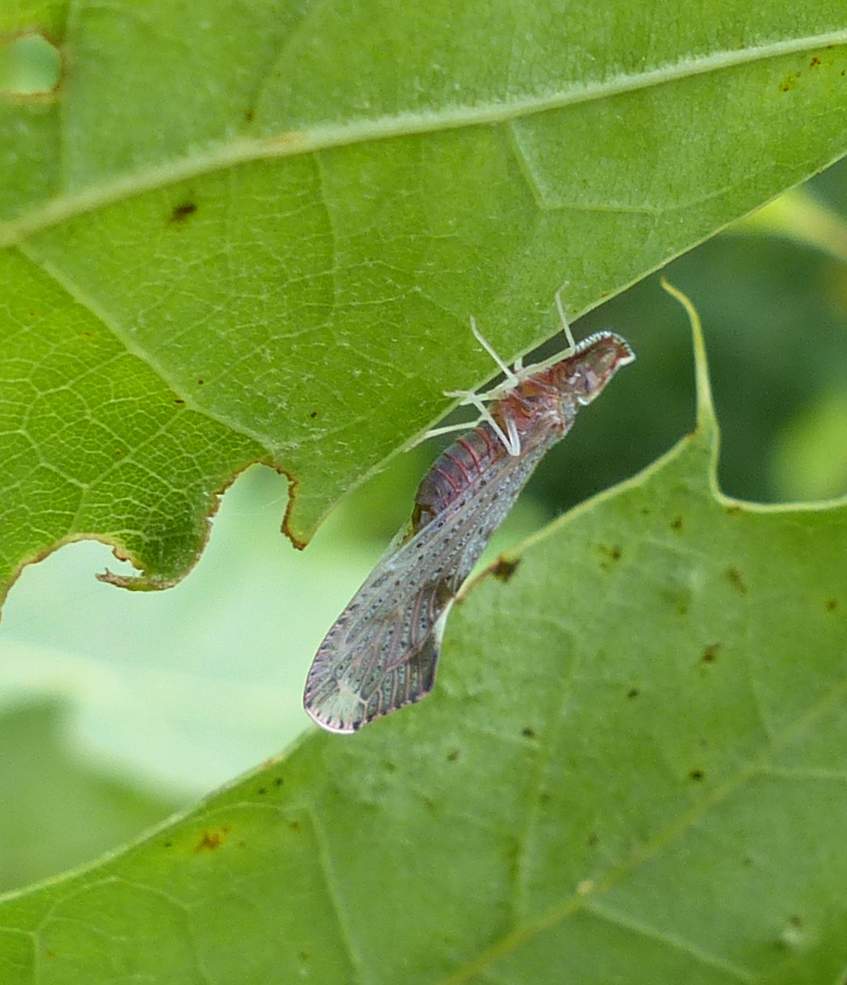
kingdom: Animalia
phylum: Arthropoda
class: Insecta
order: Hemiptera
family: Derbidae
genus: Apache
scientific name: Apache degeeri
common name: Red-fanned planthopper
